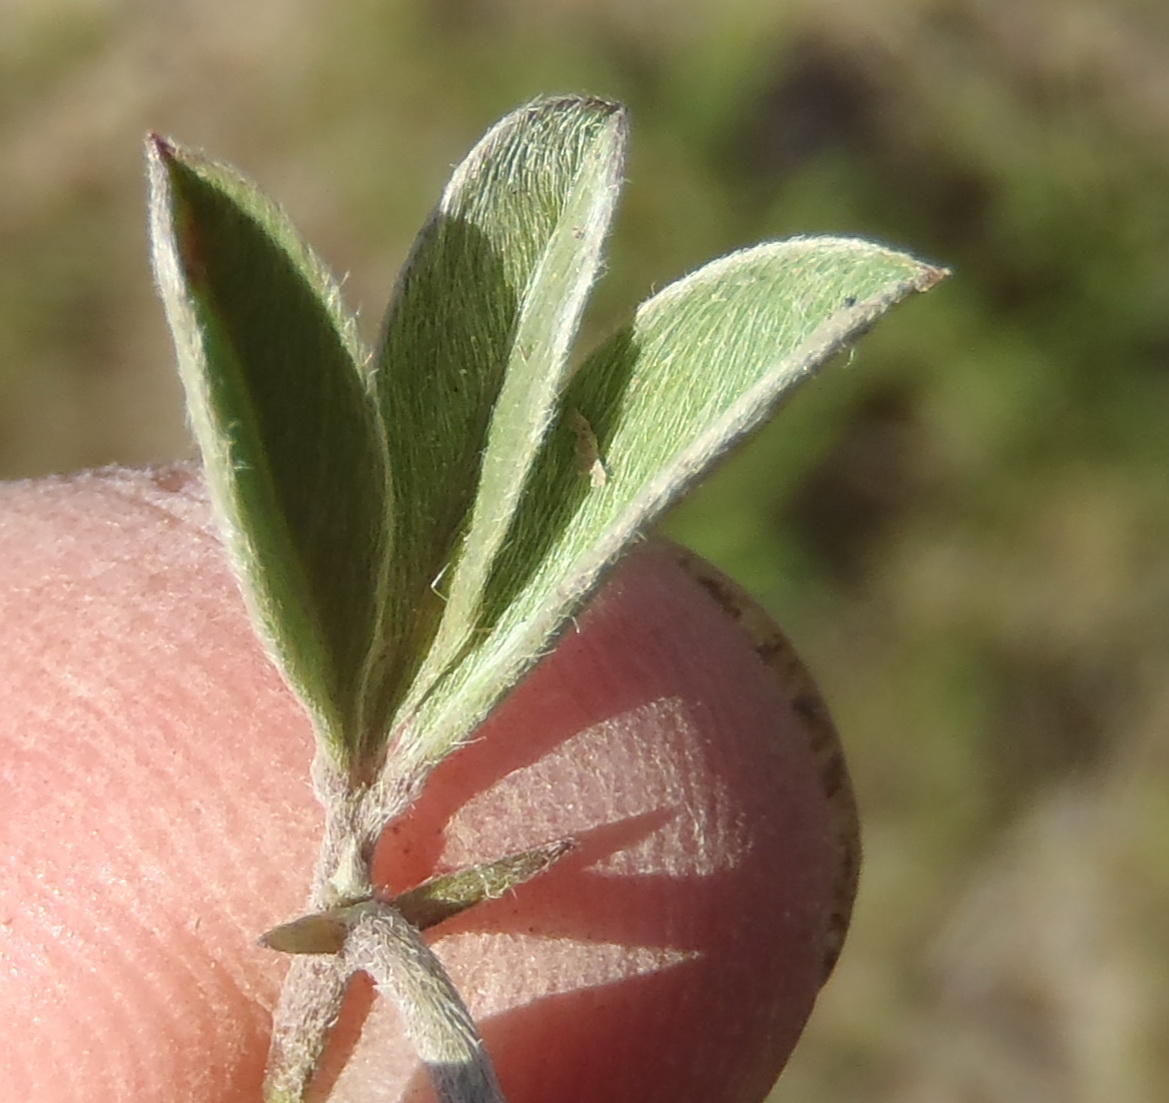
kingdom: Plantae
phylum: Tracheophyta
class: Magnoliopsida
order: Fabales
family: Fabaceae
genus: Argyrolobium
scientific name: Argyrolobium argenteum
